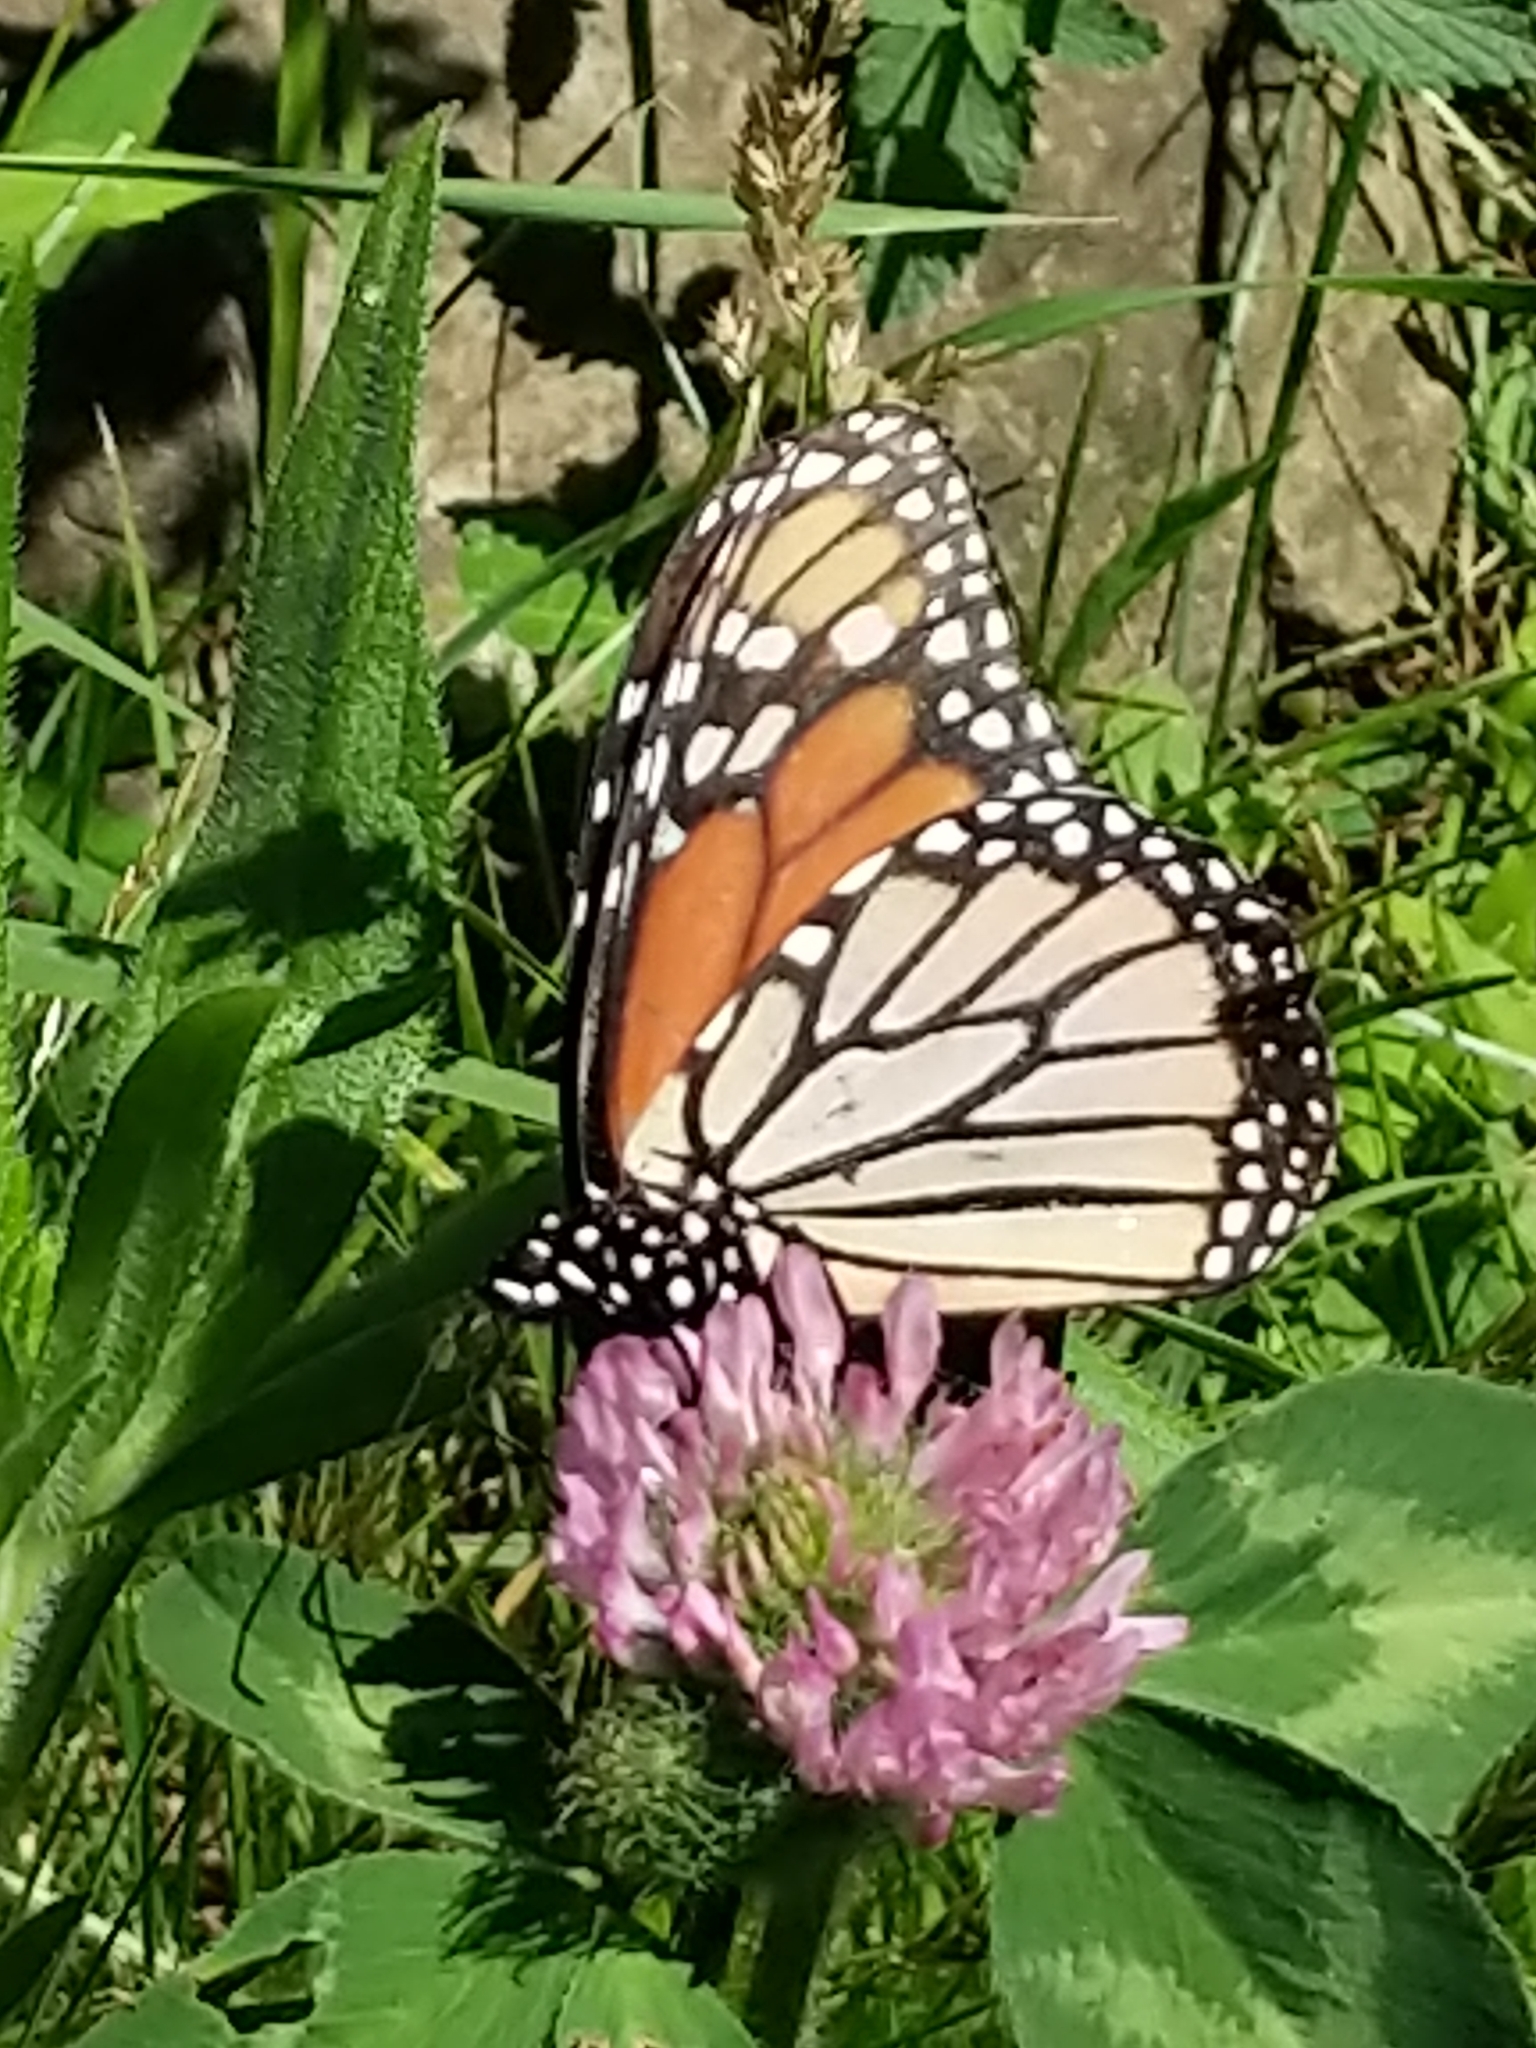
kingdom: Animalia
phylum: Arthropoda
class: Insecta
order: Lepidoptera
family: Nymphalidae
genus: Danaus
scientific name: Danaus plexippus
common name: Monarch
